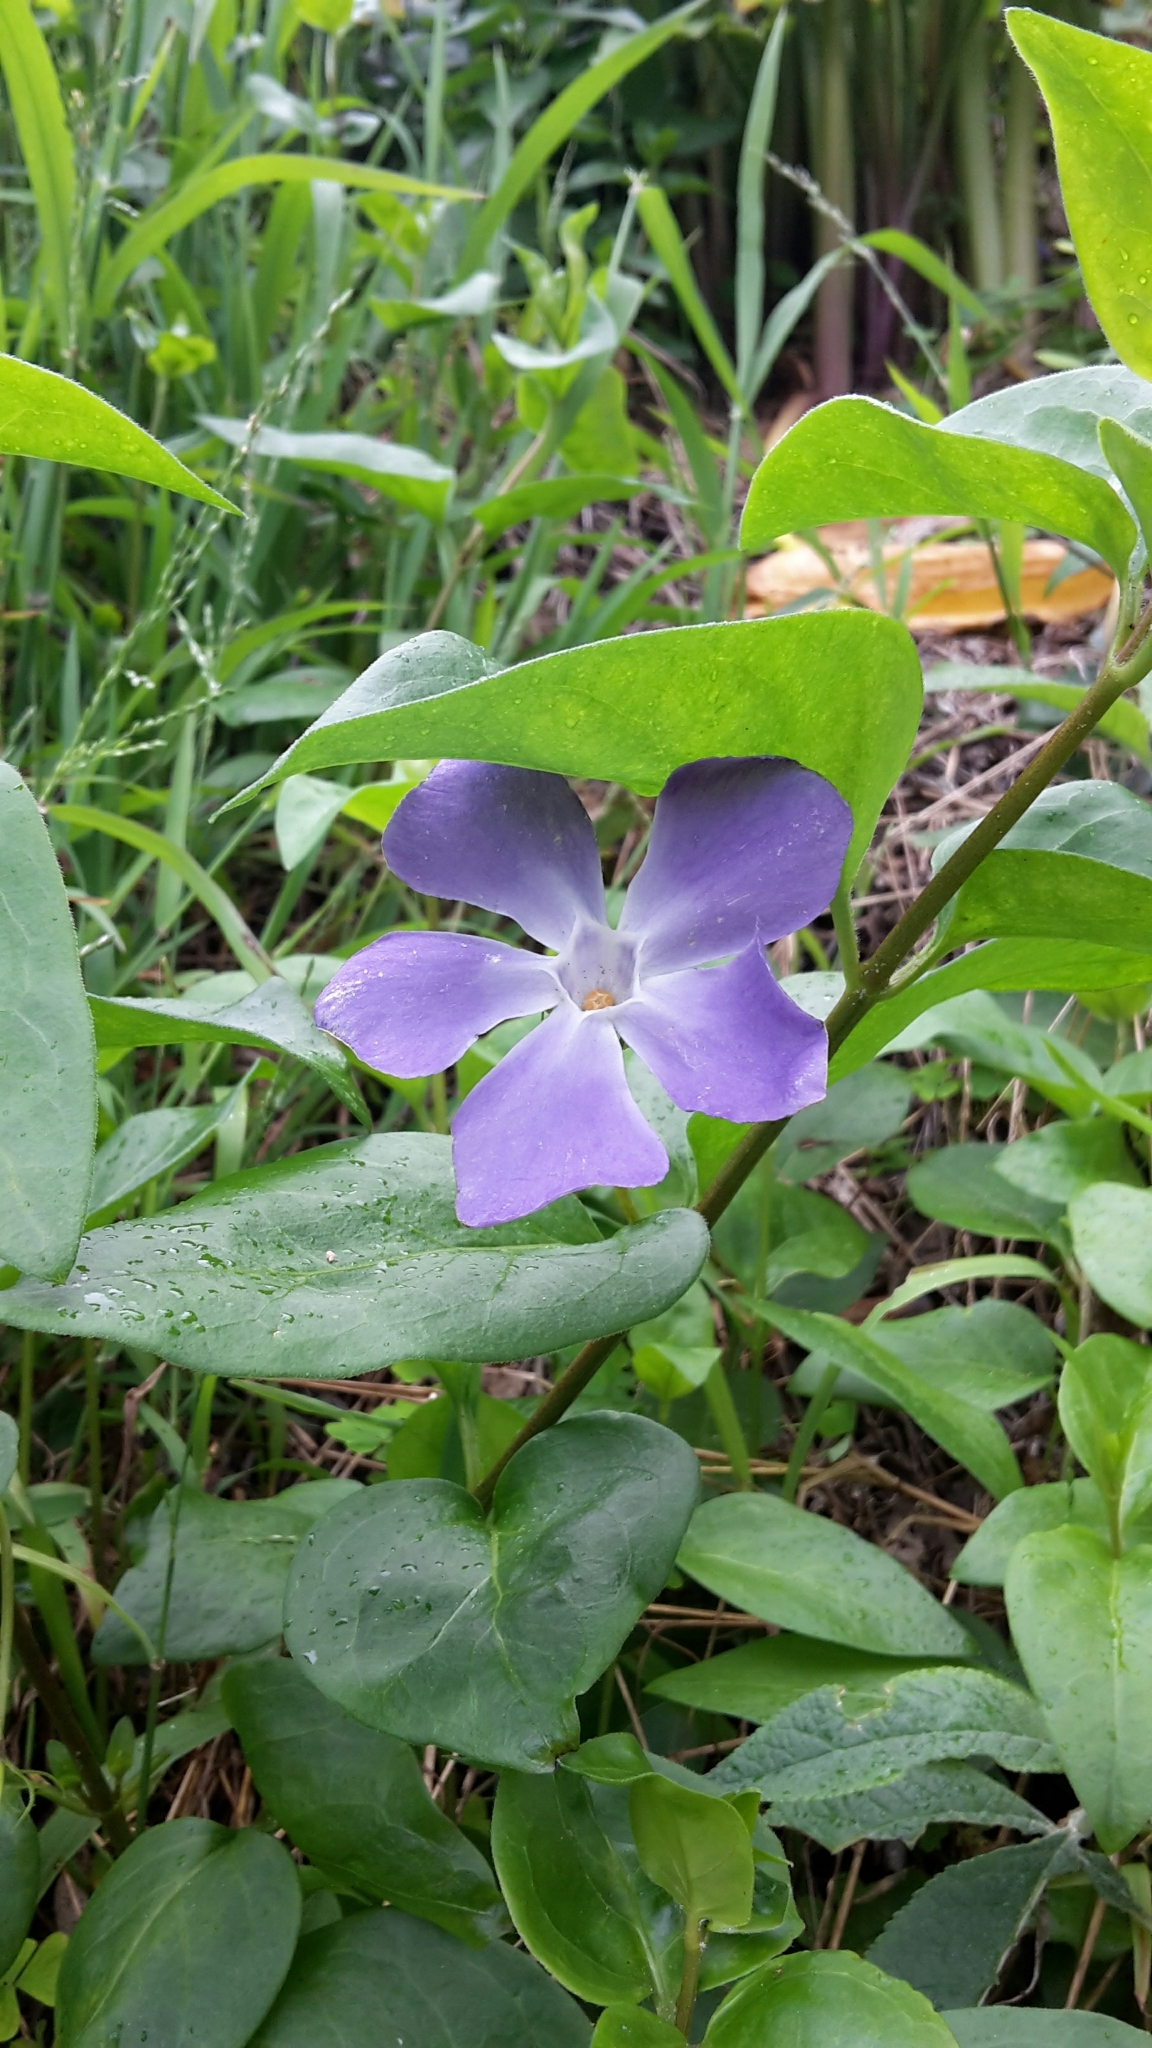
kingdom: Plantae
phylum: Tracheophyta
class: Magnoliopsida
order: Gentianales
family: Apocynaceae
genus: Vinca
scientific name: Vinca major
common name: Greater periwinkle
